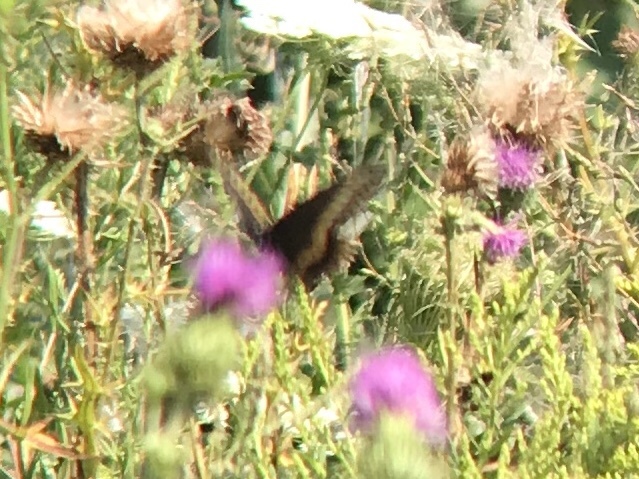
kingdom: Animalia
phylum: Arthropoda
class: Insecta
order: Lepidoptera
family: Papilionidae
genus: Papilio
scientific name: Papilio polyxenes
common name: Black swallowtail
